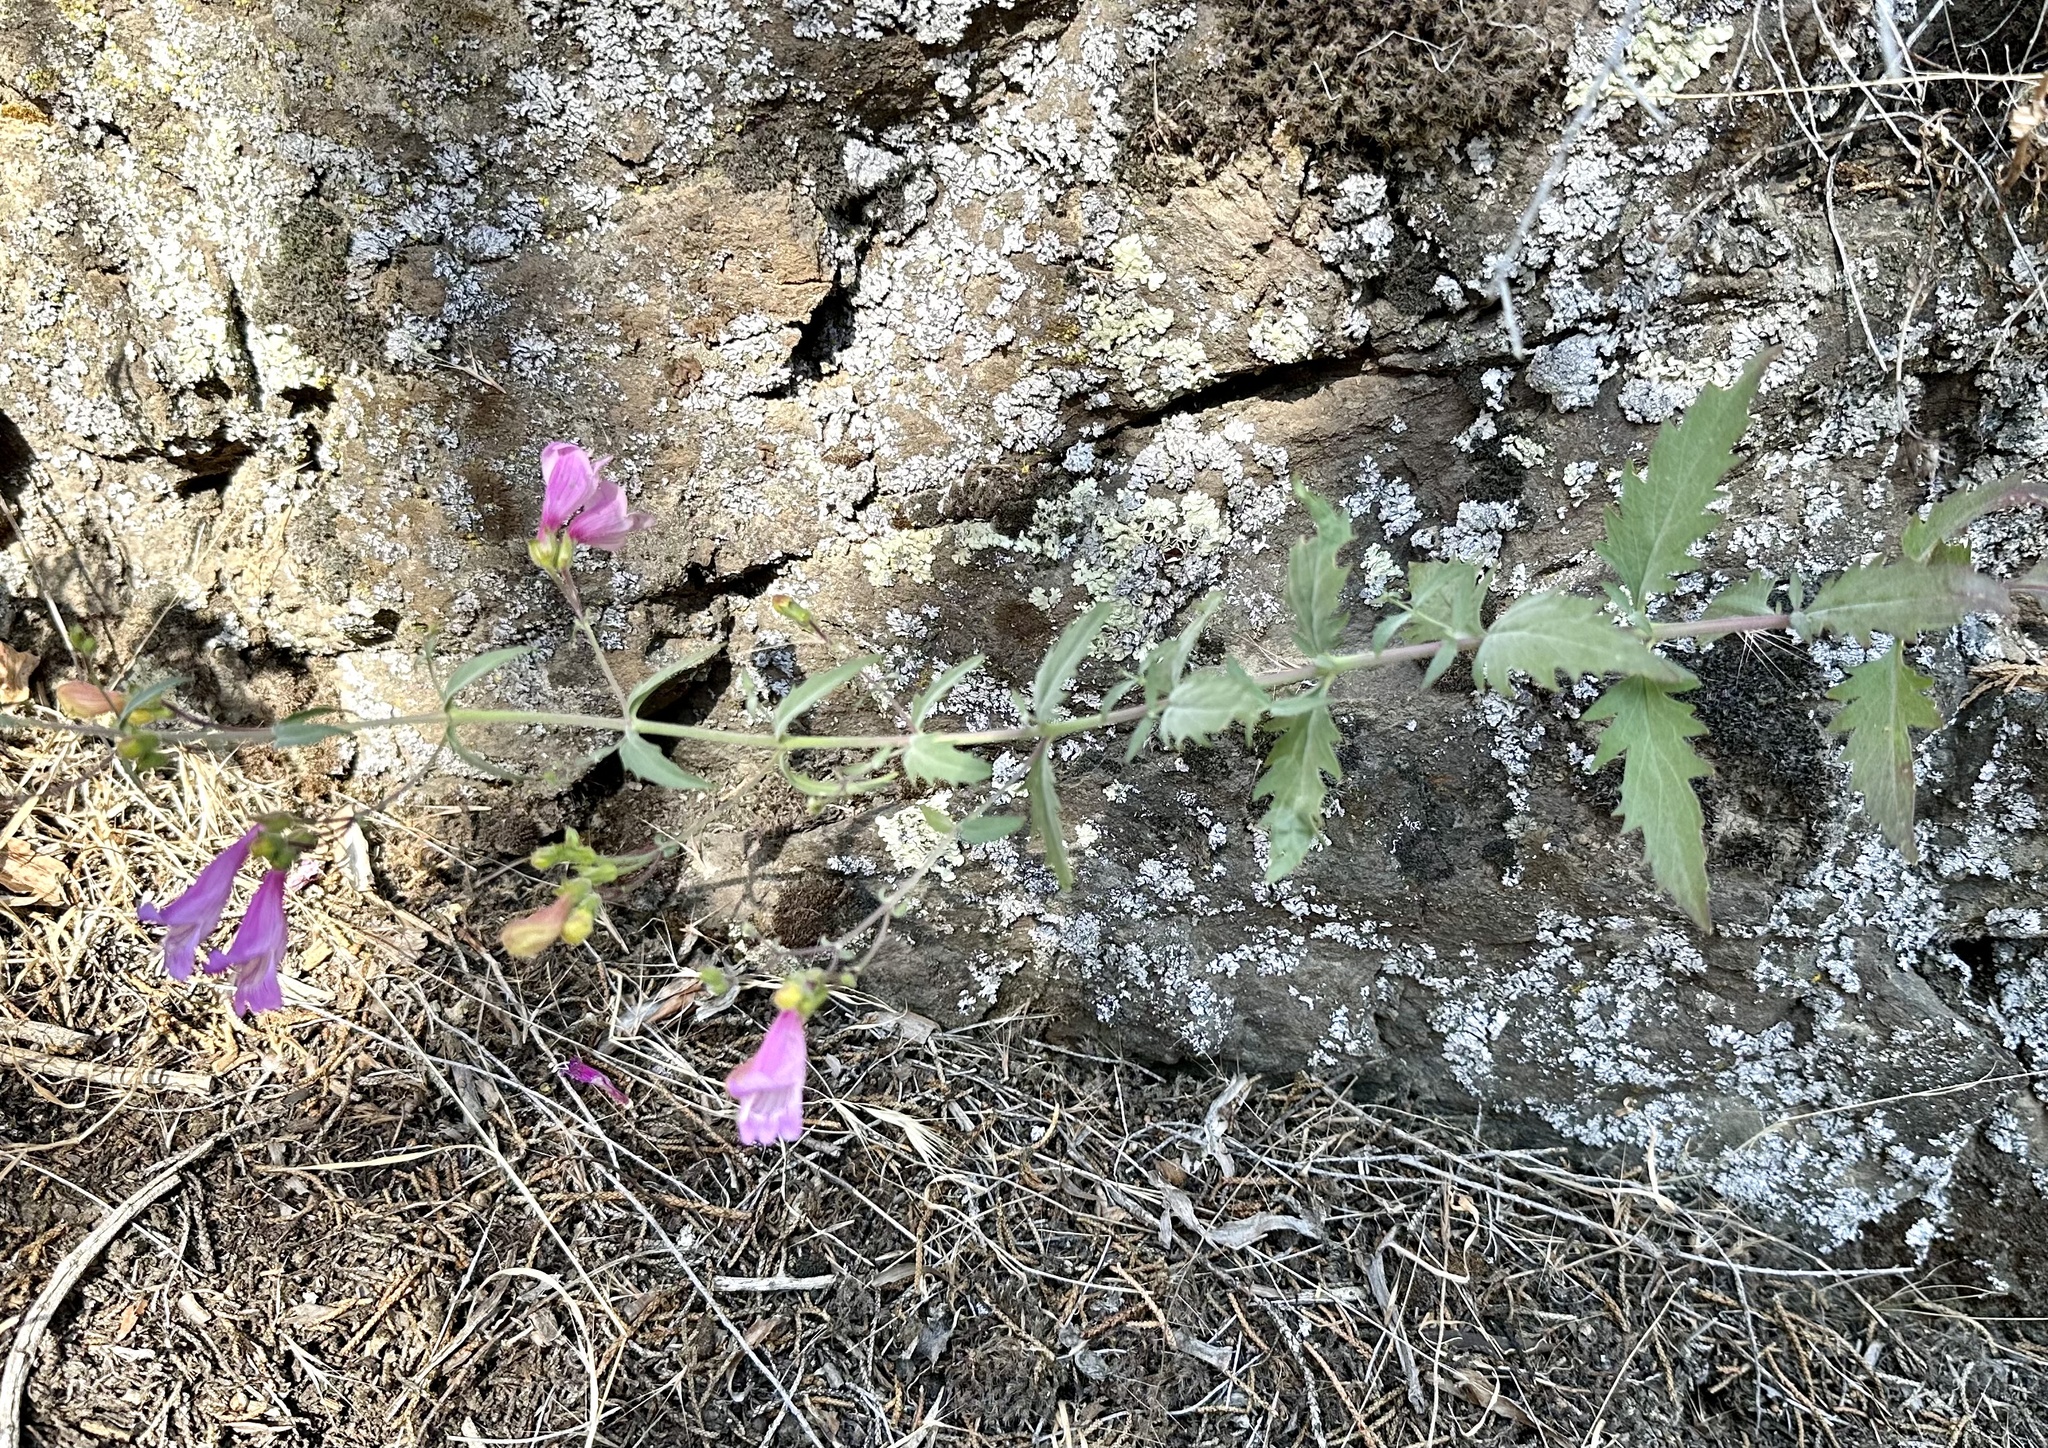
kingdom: Plantae
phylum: Tracheophyta
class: Magnoliopsida
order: Lamiales
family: Plantaginaceae
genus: Penstemon
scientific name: Penstemon richardsonii
